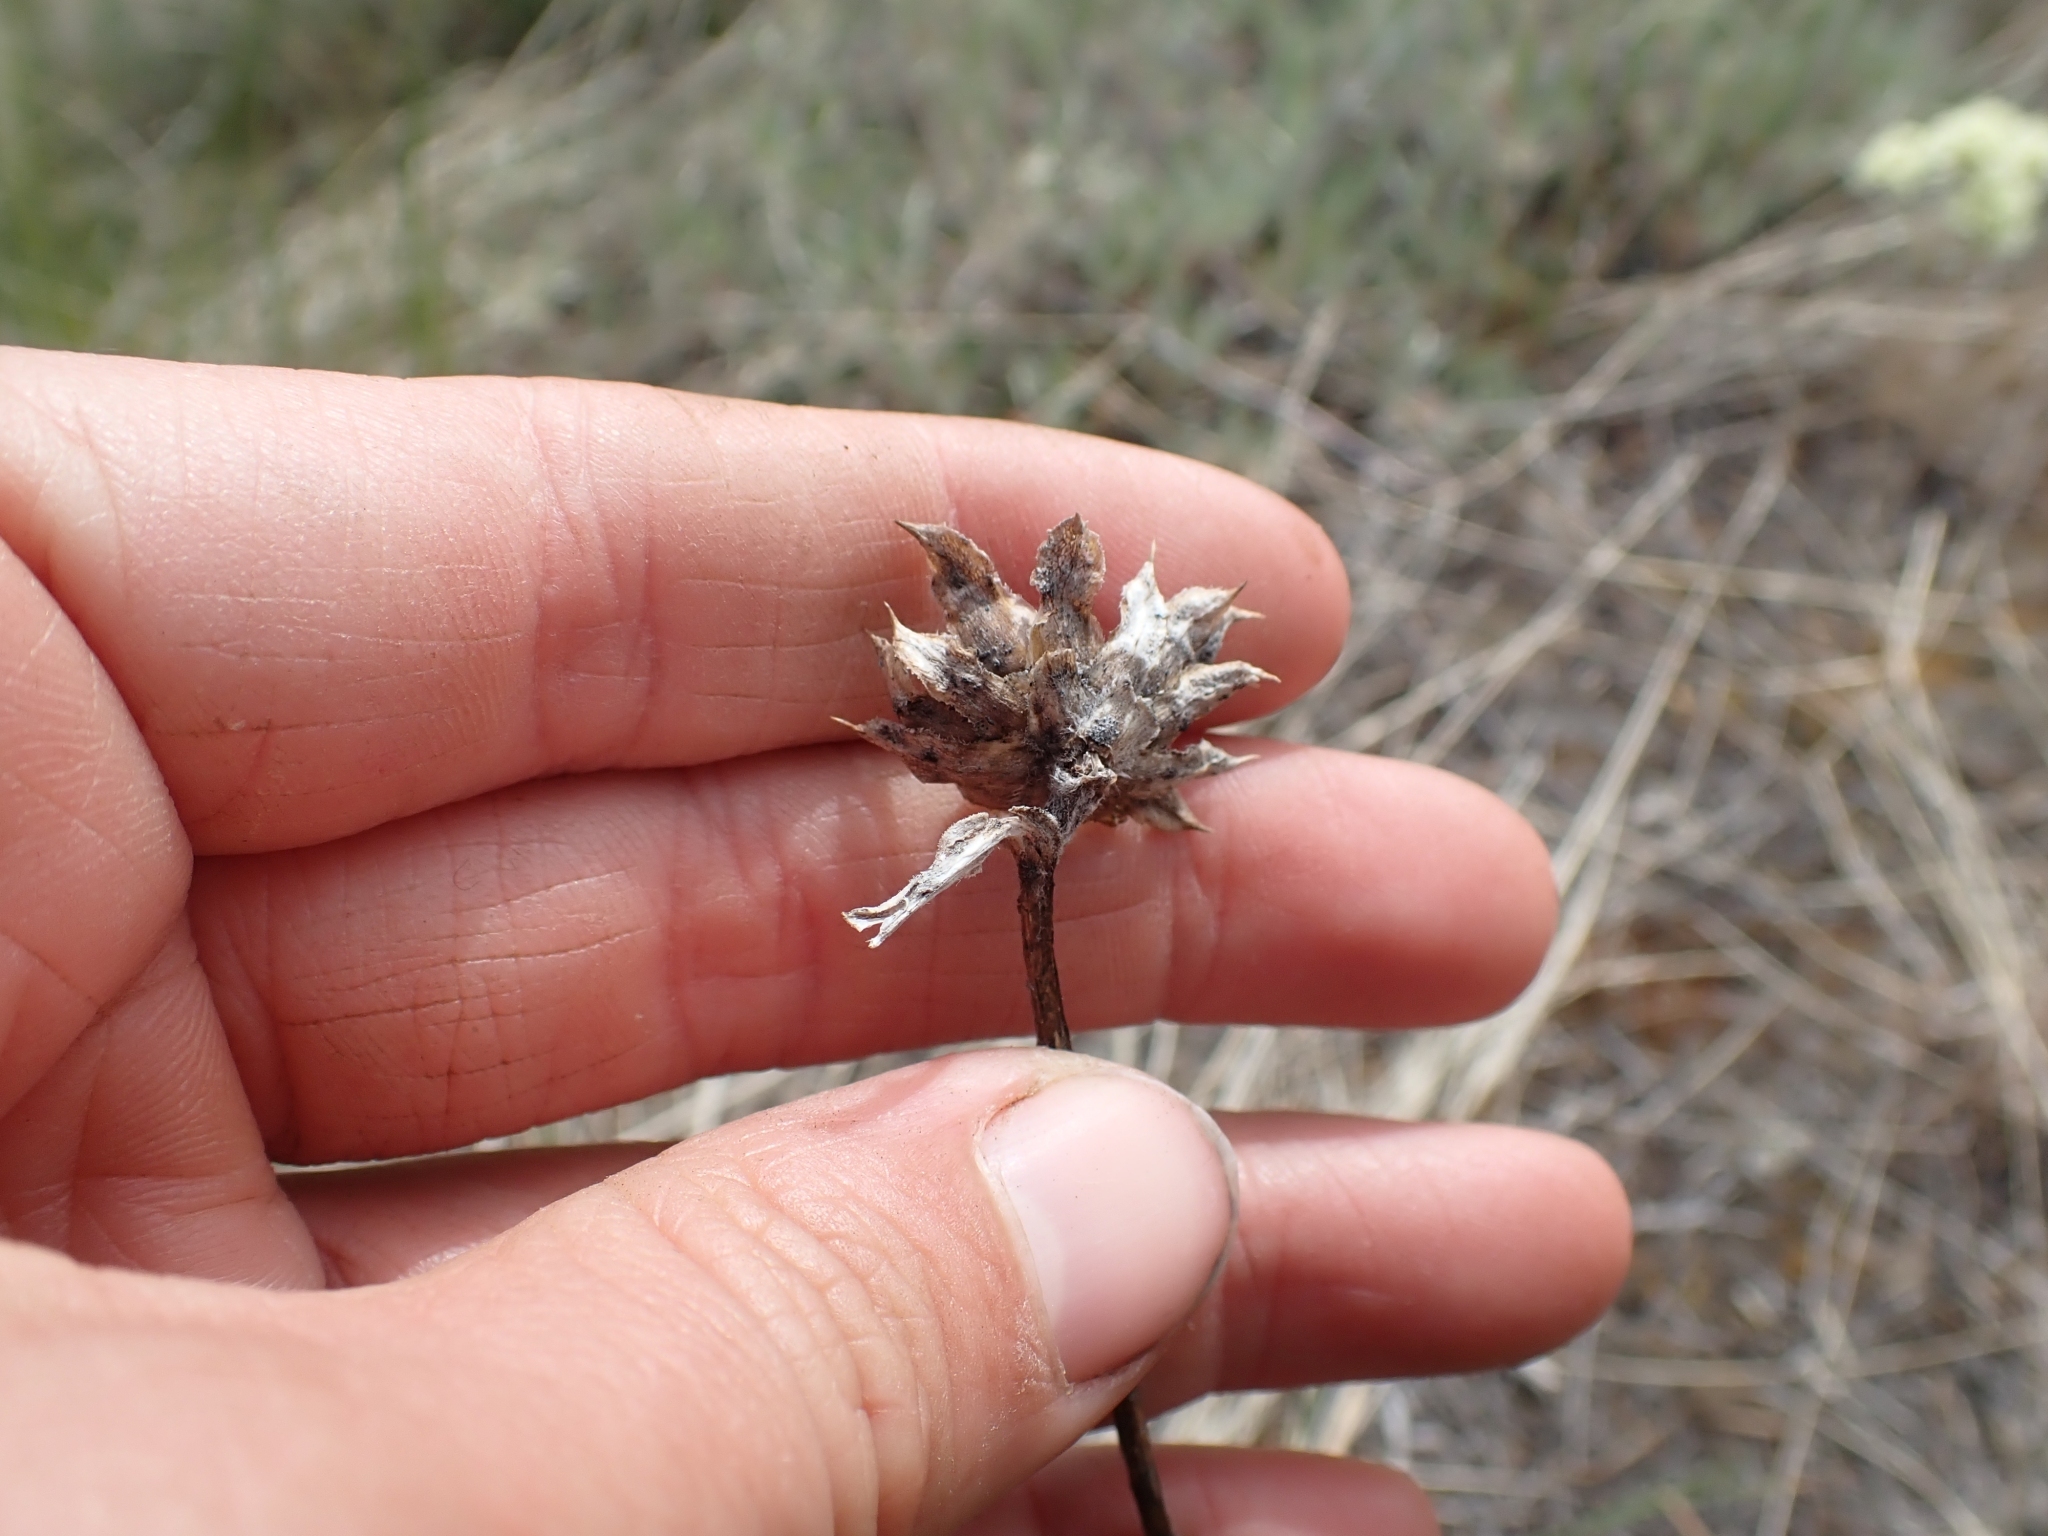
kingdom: Plantae
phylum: Tracheophyta
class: Magnoliopsida
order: Asterales
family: Asteraceae
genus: Pyrrocoma
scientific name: Pyrrocoma carthamoides
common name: Large-flower goldenweed
